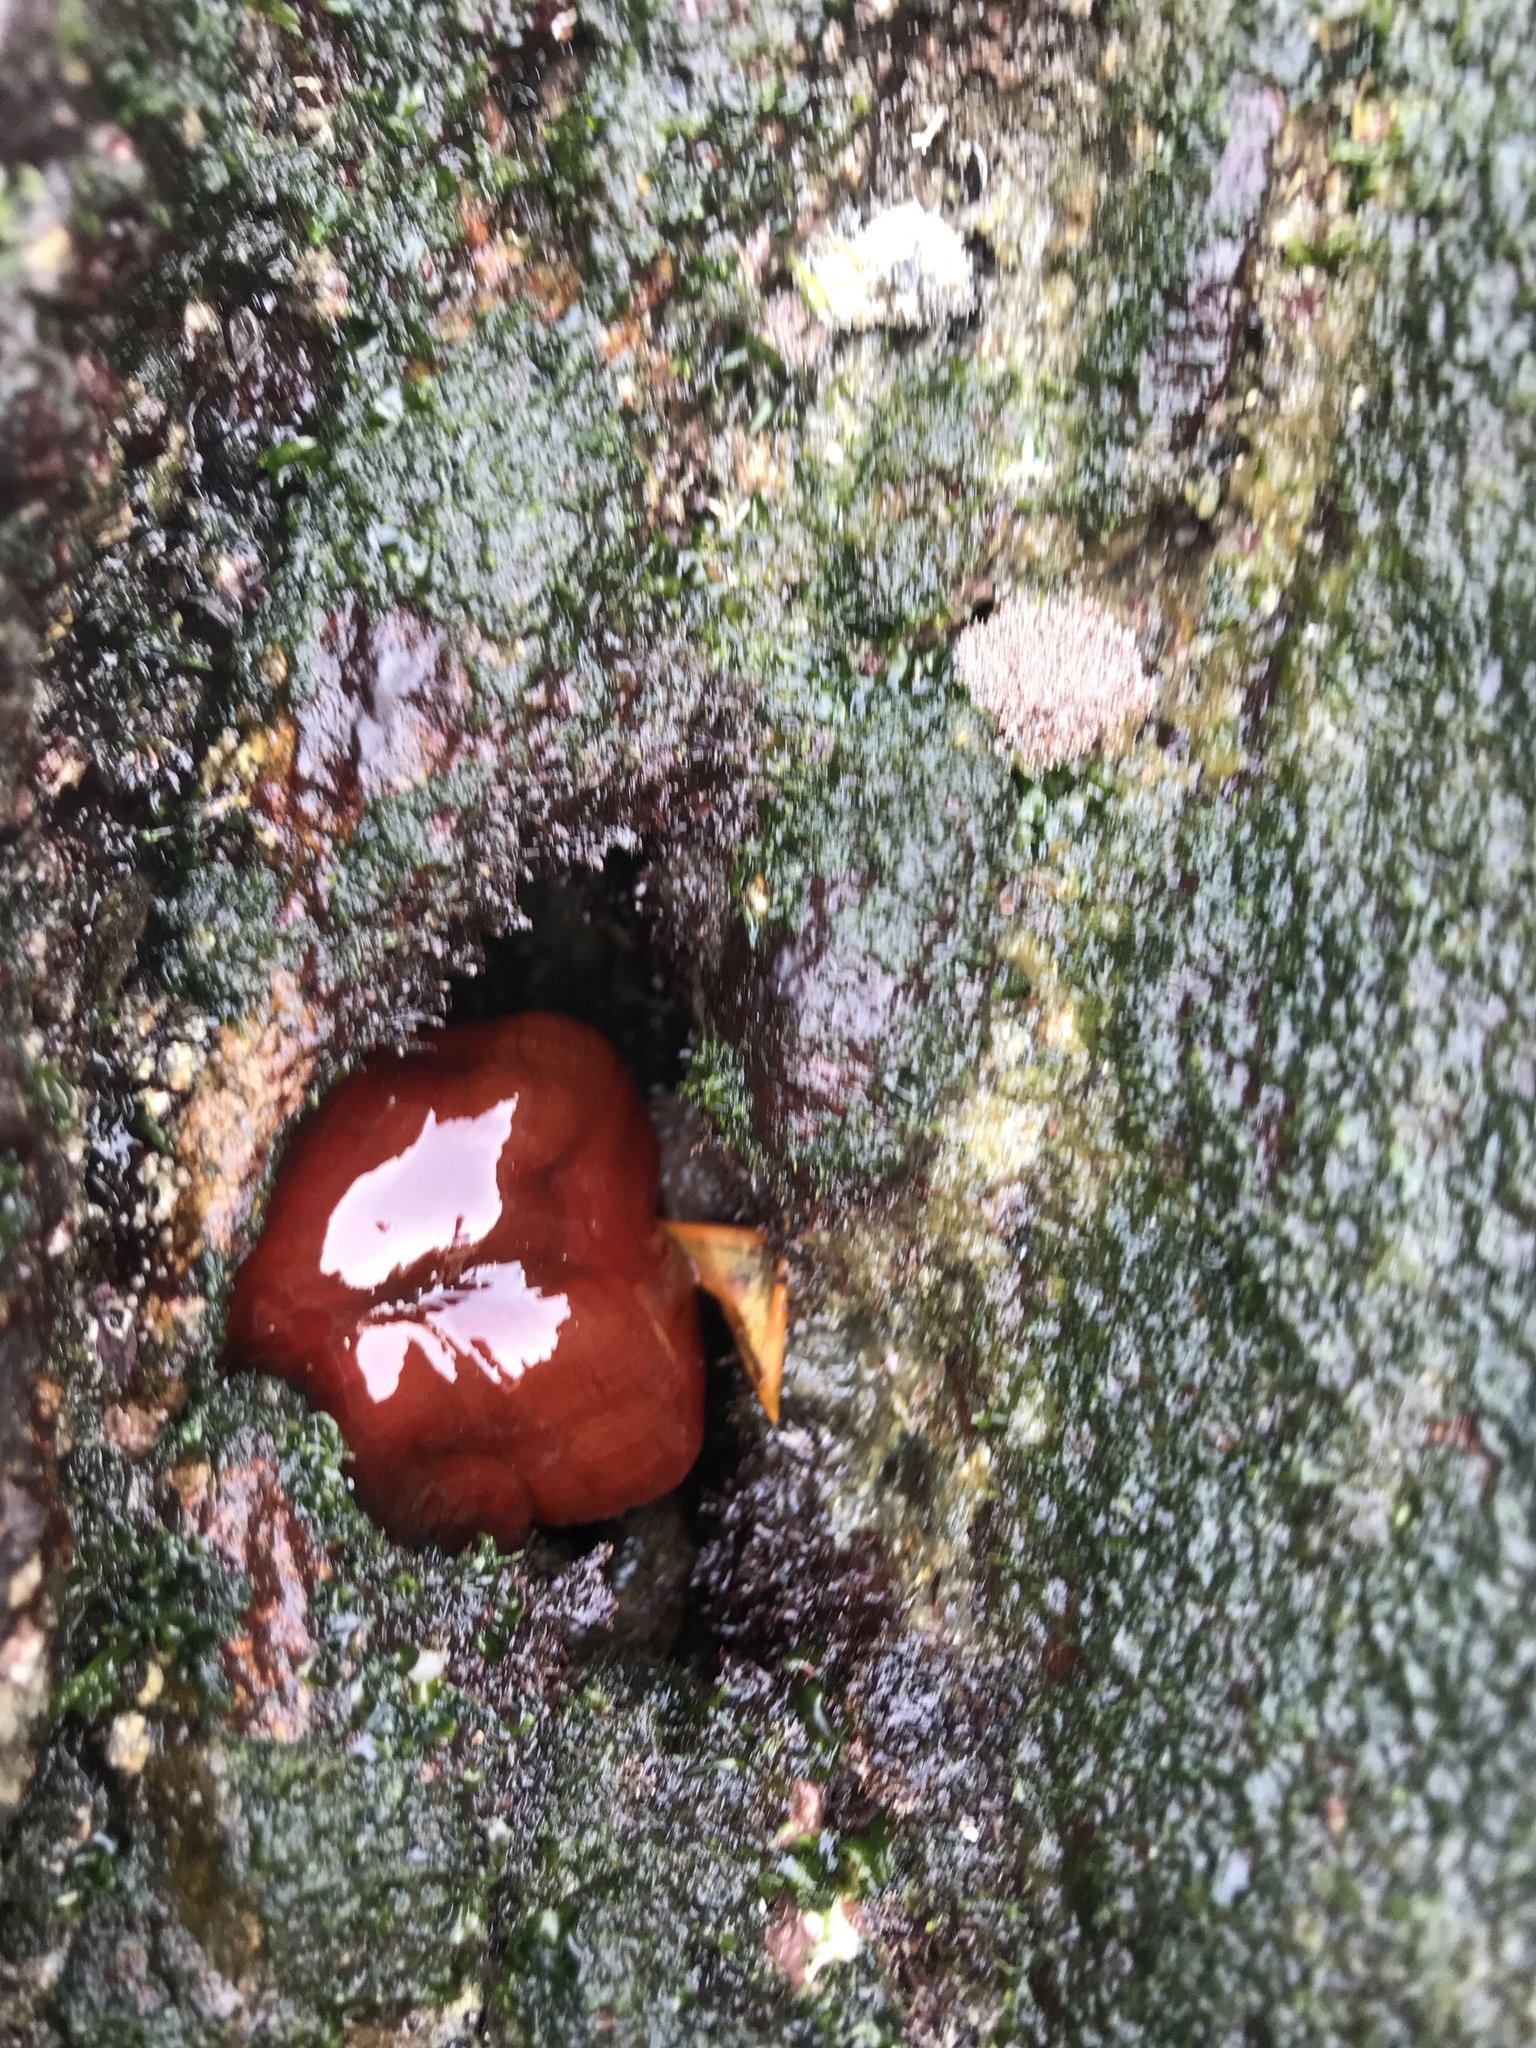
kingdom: Animalia
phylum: Cnidaria
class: Anthozoa
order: Actiniaria
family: Actiniidae
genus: Actinia
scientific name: Actinia mediterranea
